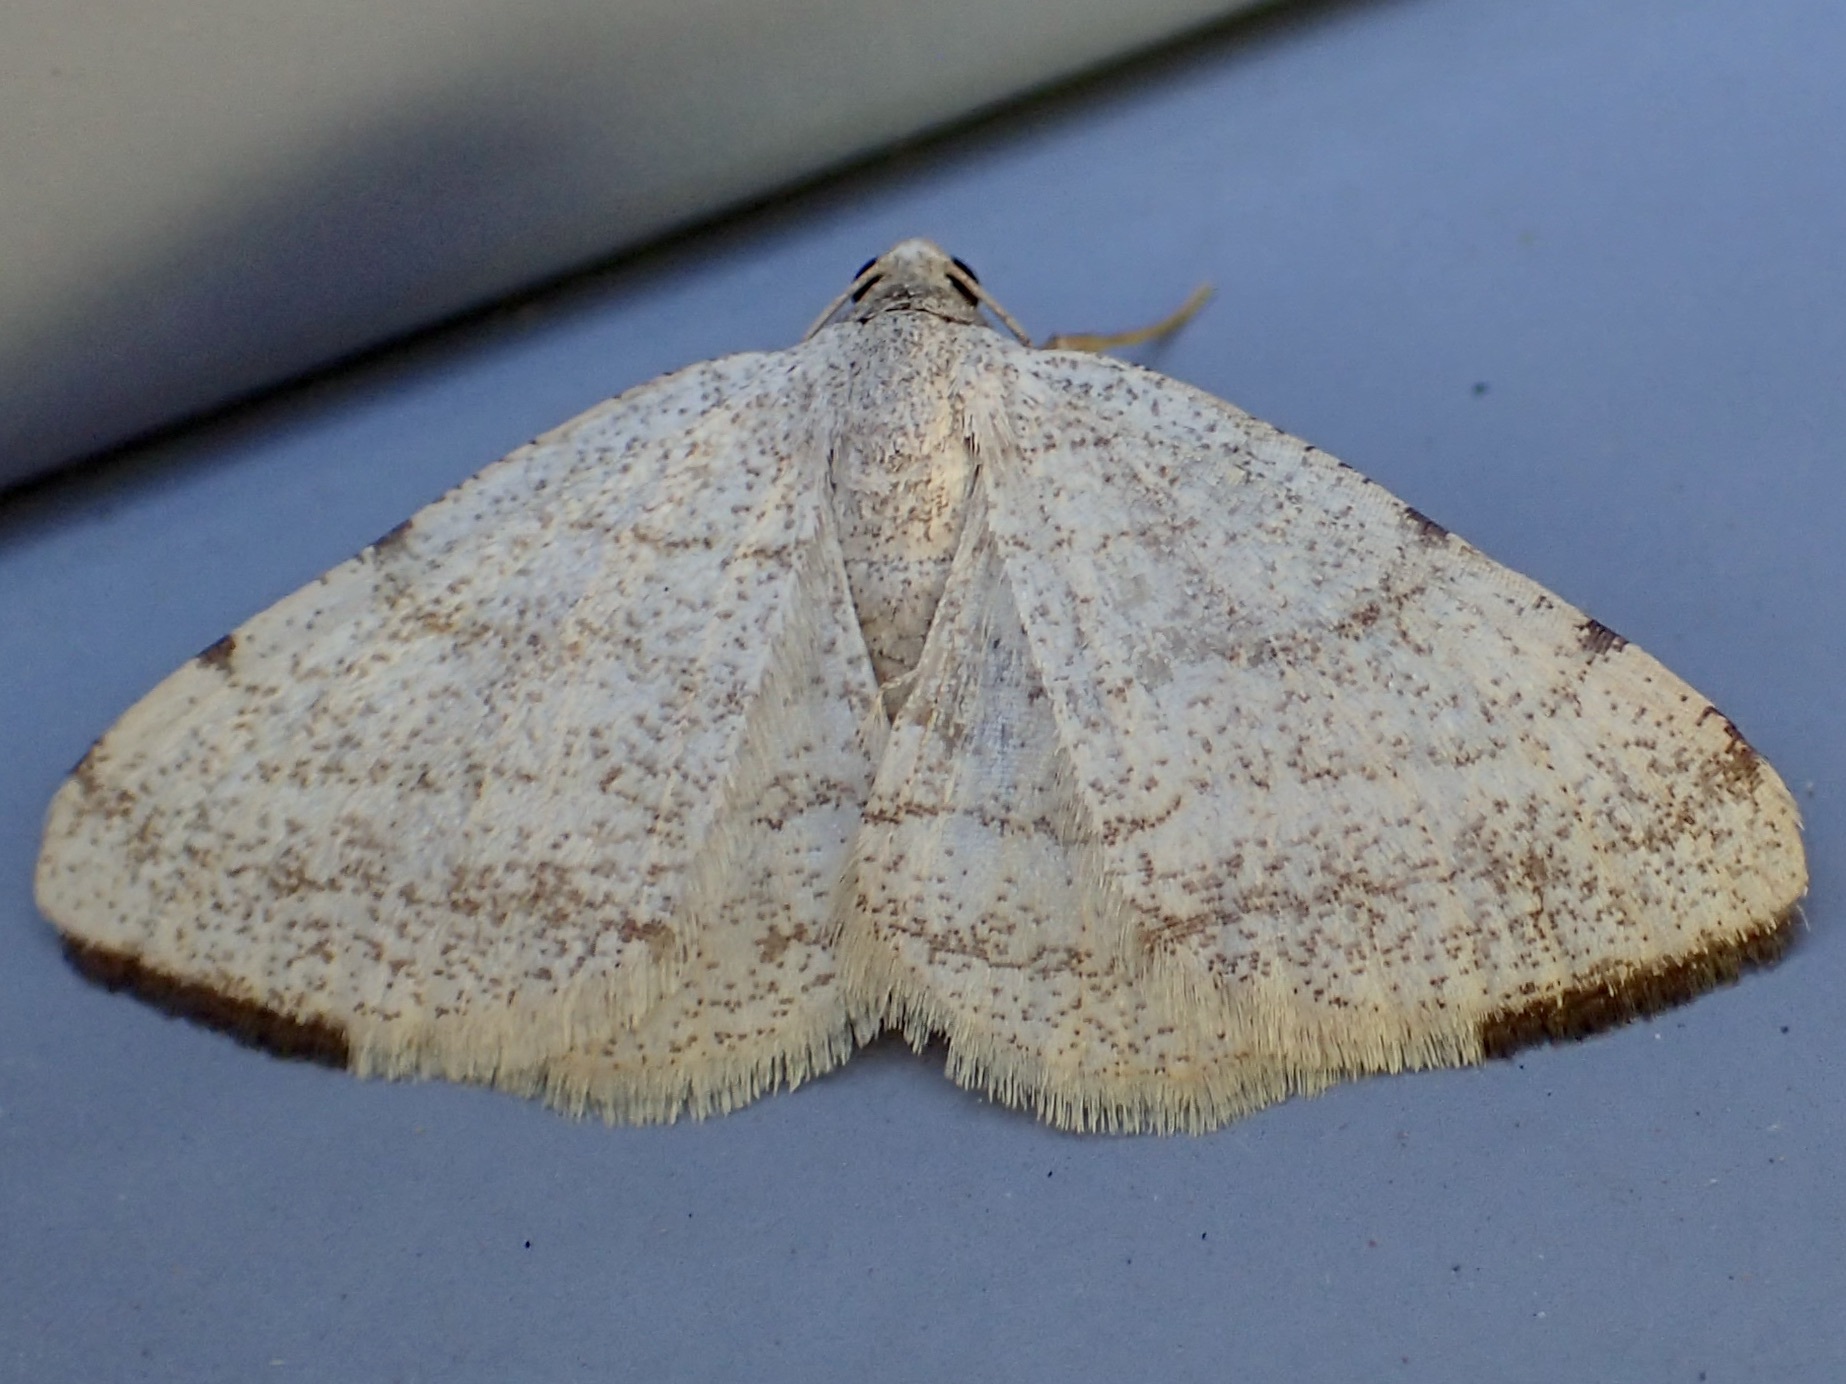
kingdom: Animalia
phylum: Arthropoda
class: Insecta
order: Lepidoptera
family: Geometridae
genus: Macaria
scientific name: Macaria octolineata
